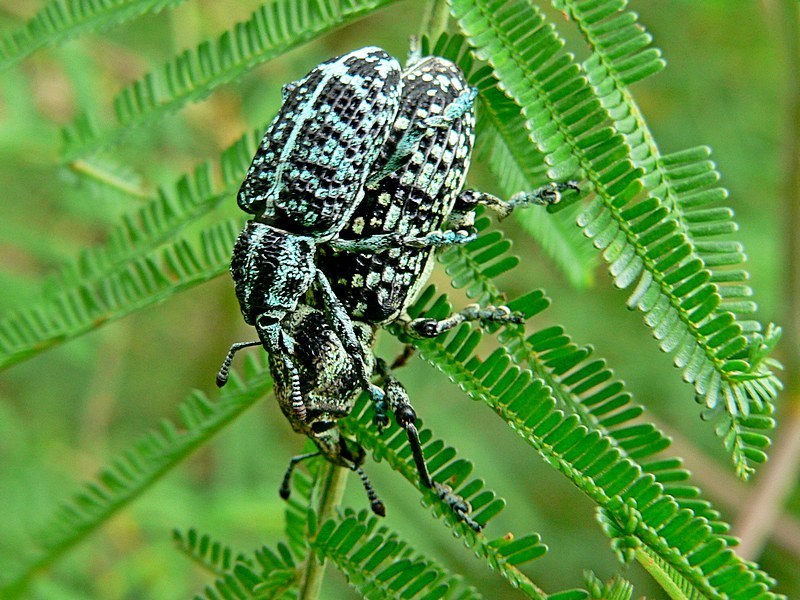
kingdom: Animalia
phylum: Arthropoda
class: Insecta
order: Coleoptera
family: Curculionidae
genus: Chrysolopus
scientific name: Chrysolopus spectabilis
